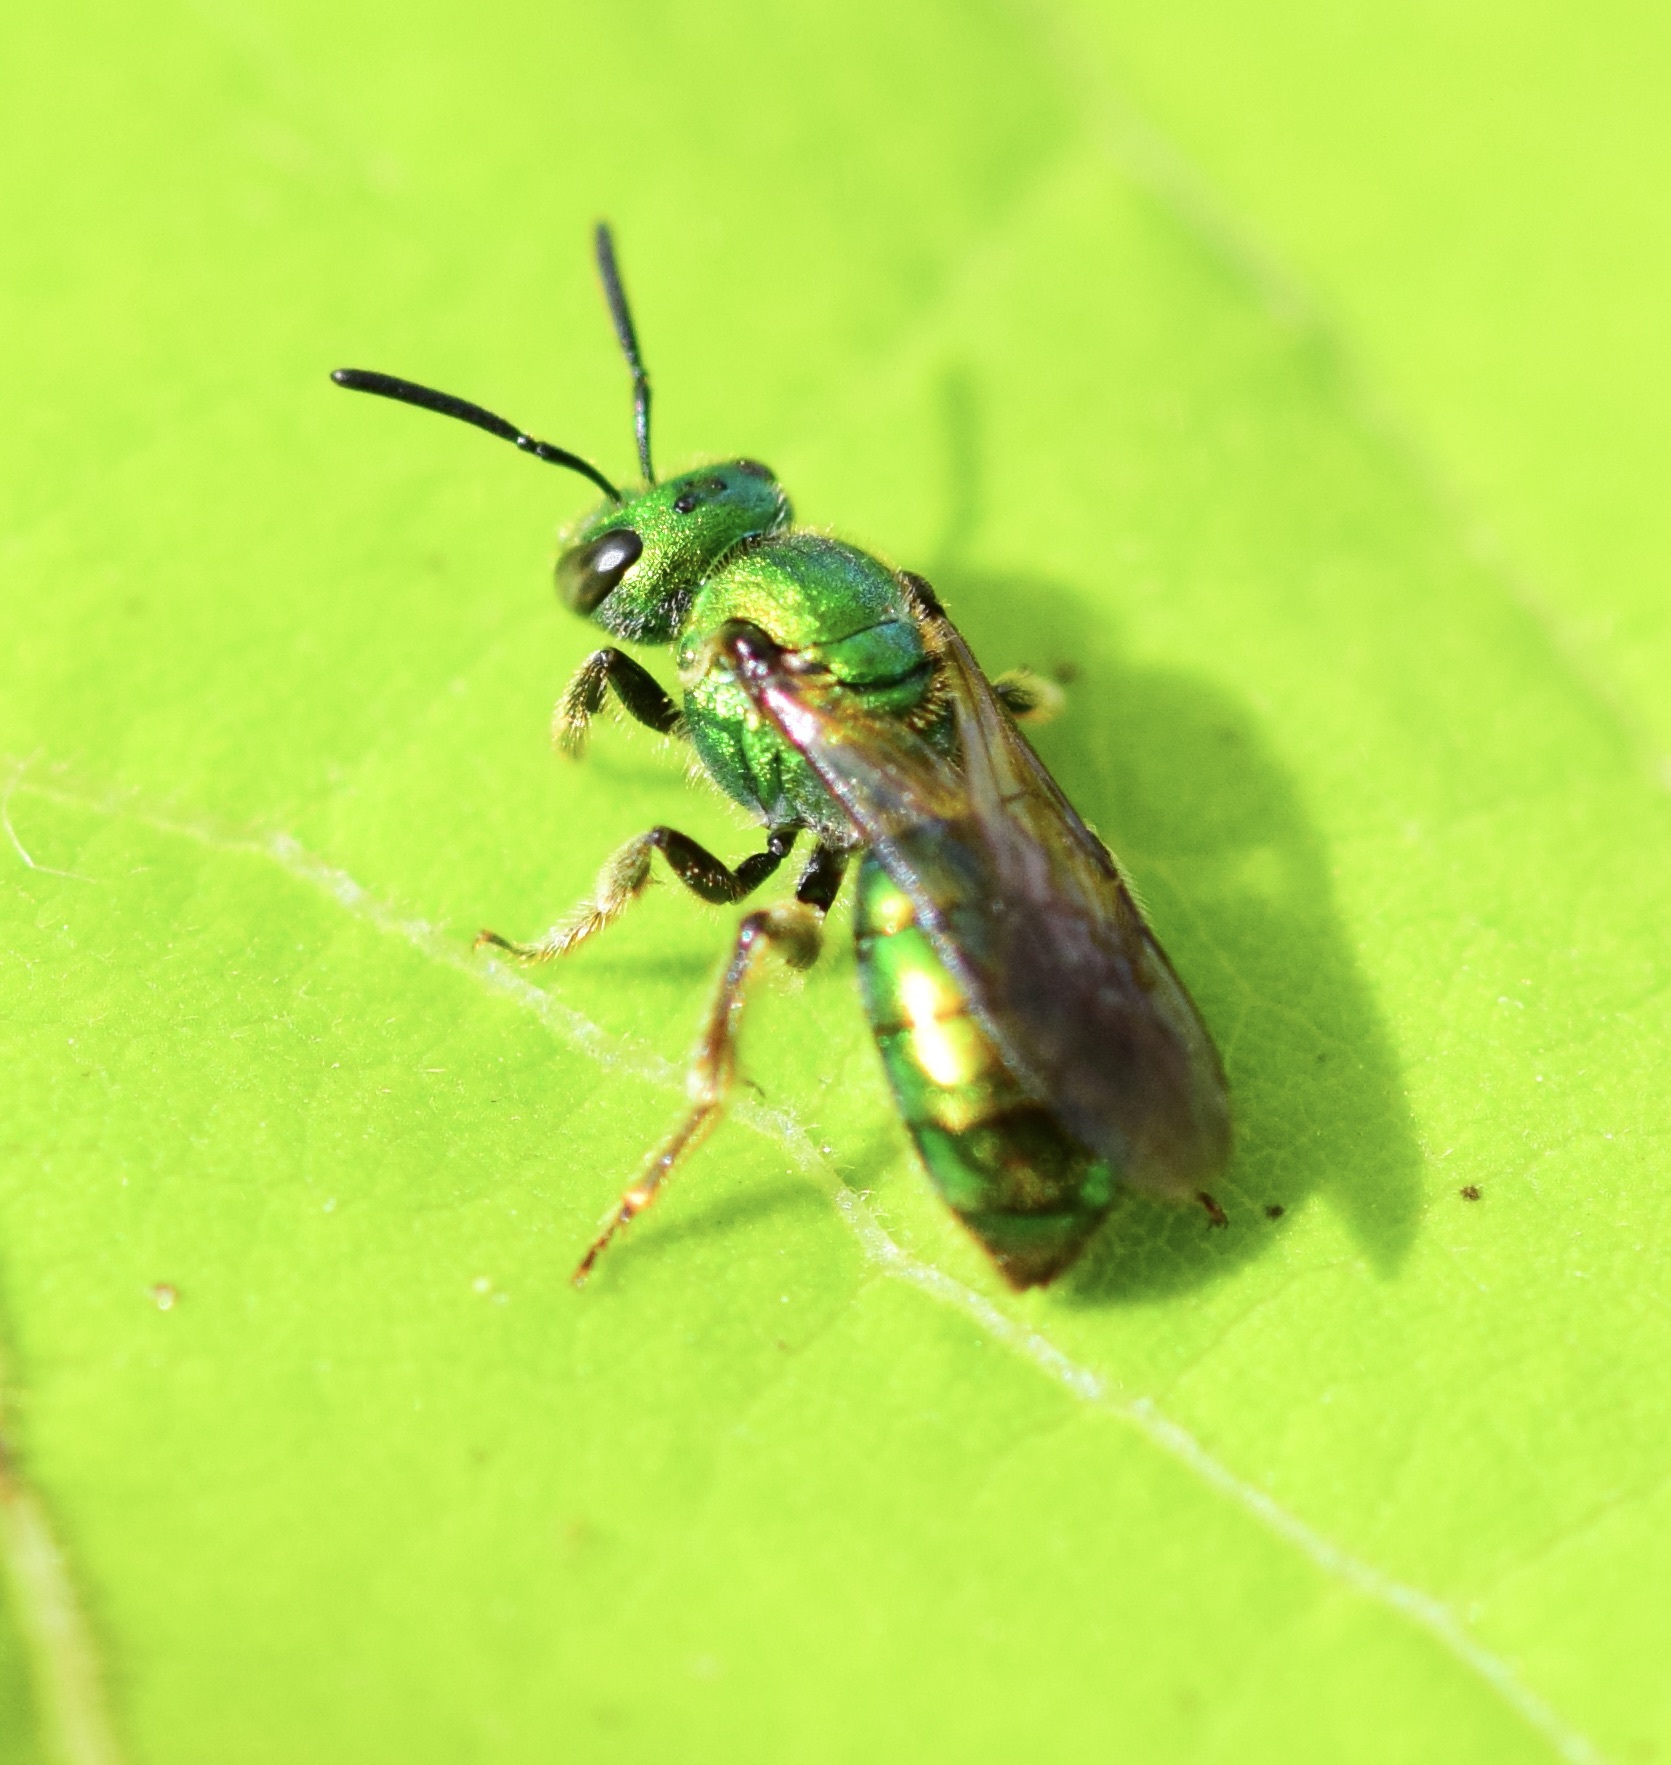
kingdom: Animalia
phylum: Arthropoda
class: Insecta
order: Hymenoptera
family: Halictidae
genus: Augochlora
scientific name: Augochlora pura
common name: Pure green sweat bee
